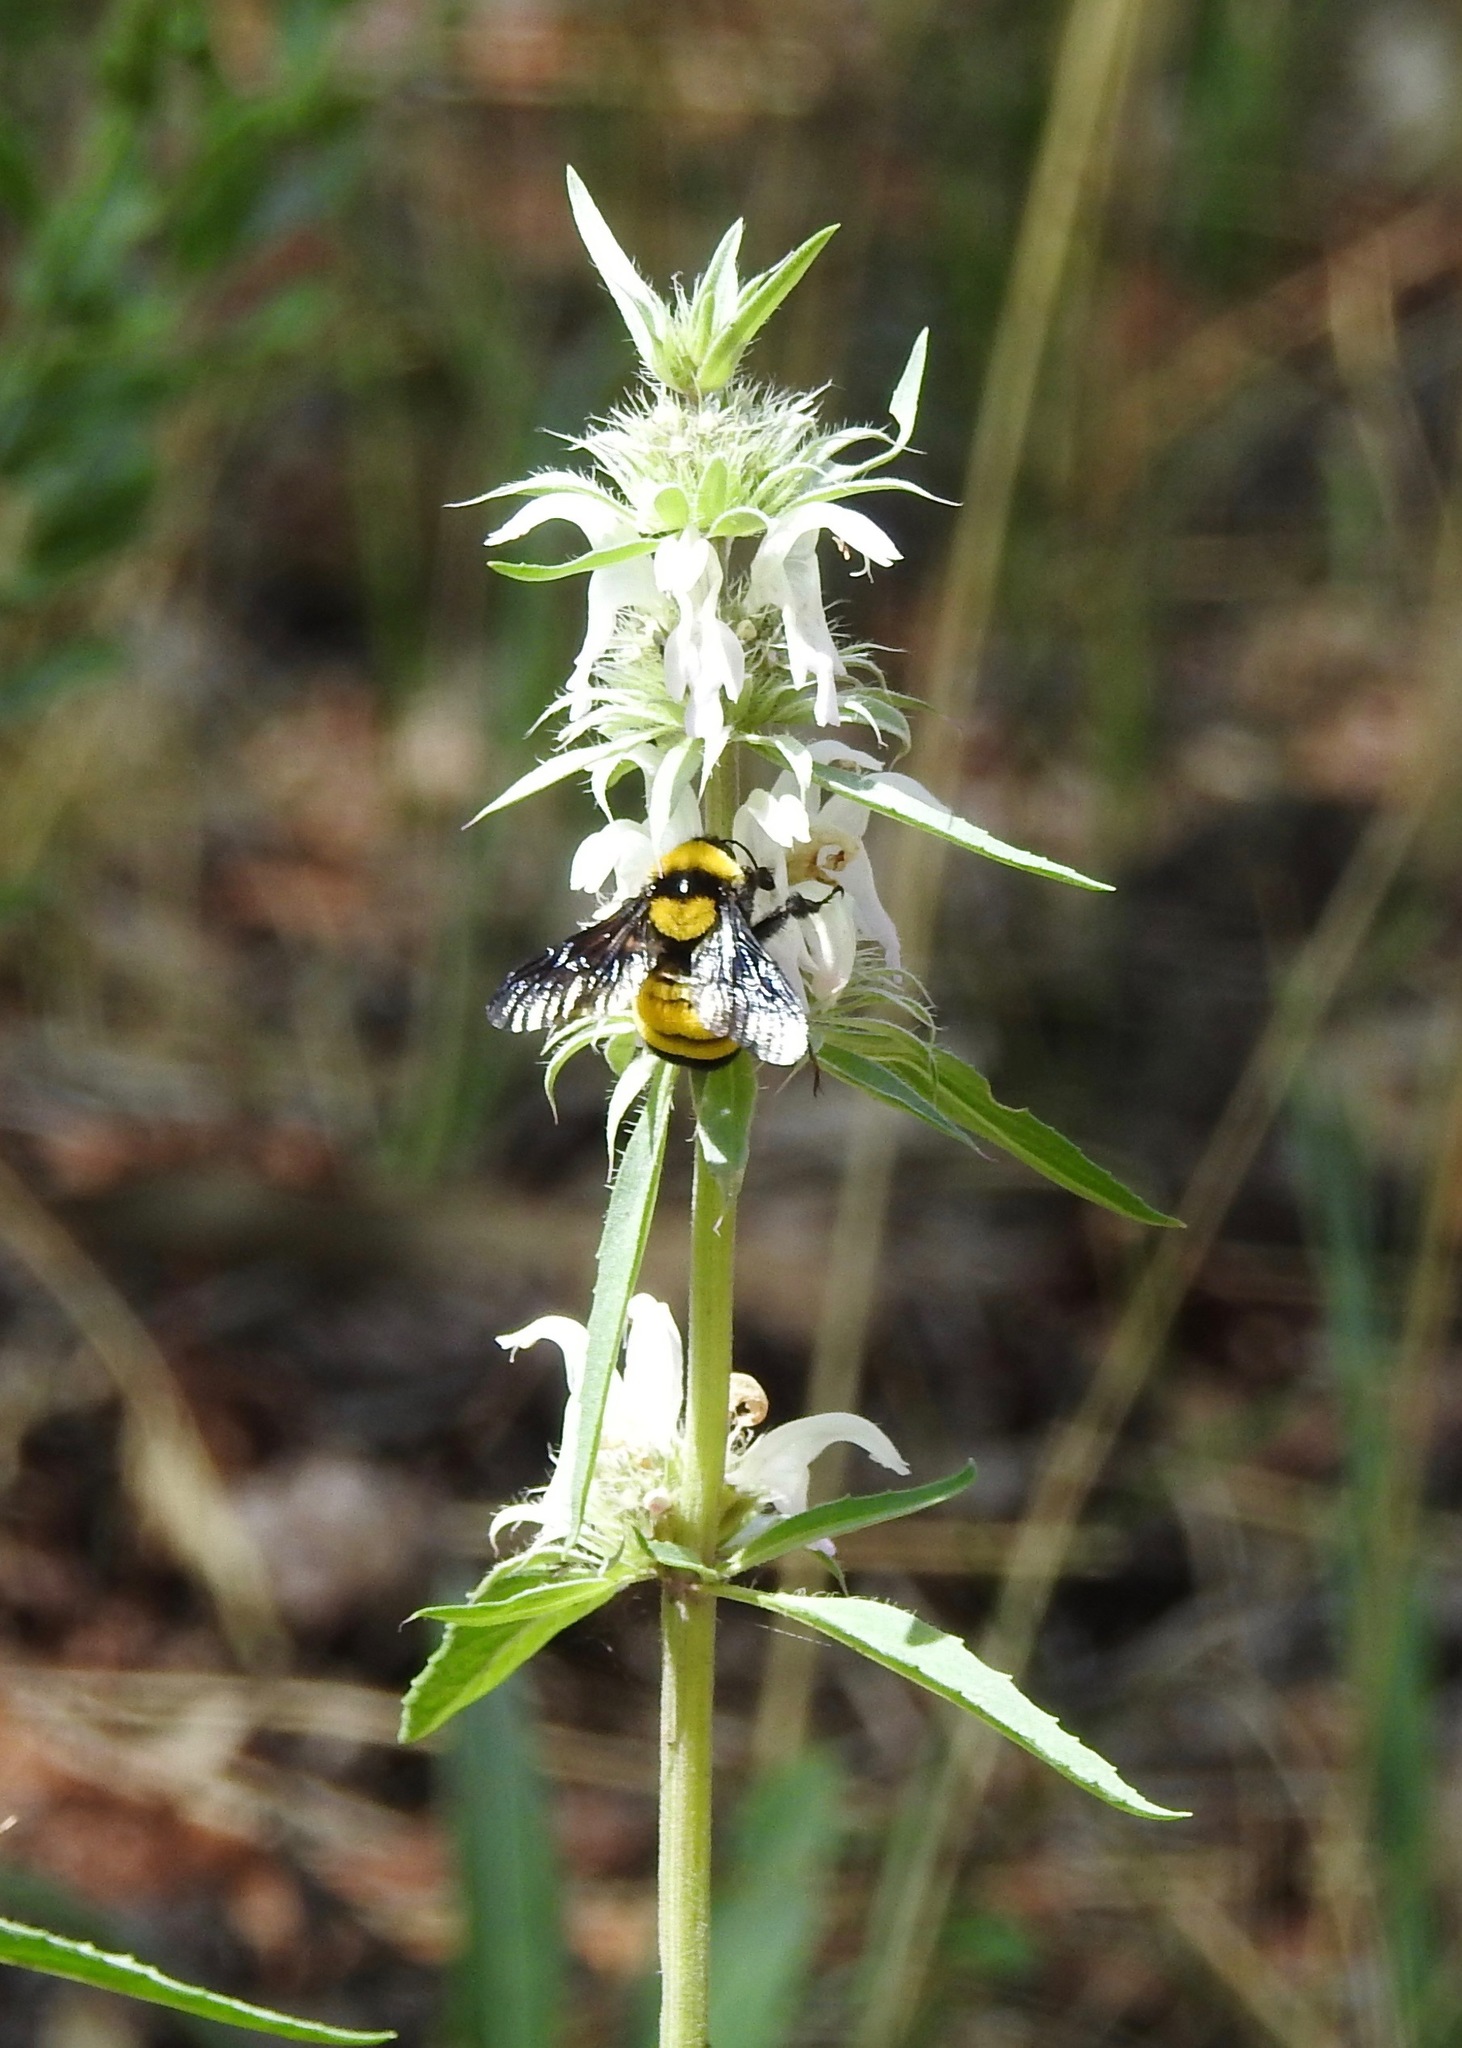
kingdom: Plantae
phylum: Tracheophyta
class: Magnoliopsida
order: Lamiales
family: Lamiaceae
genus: Monarda
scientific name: Monarda citriodora
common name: Lemon beebalm
